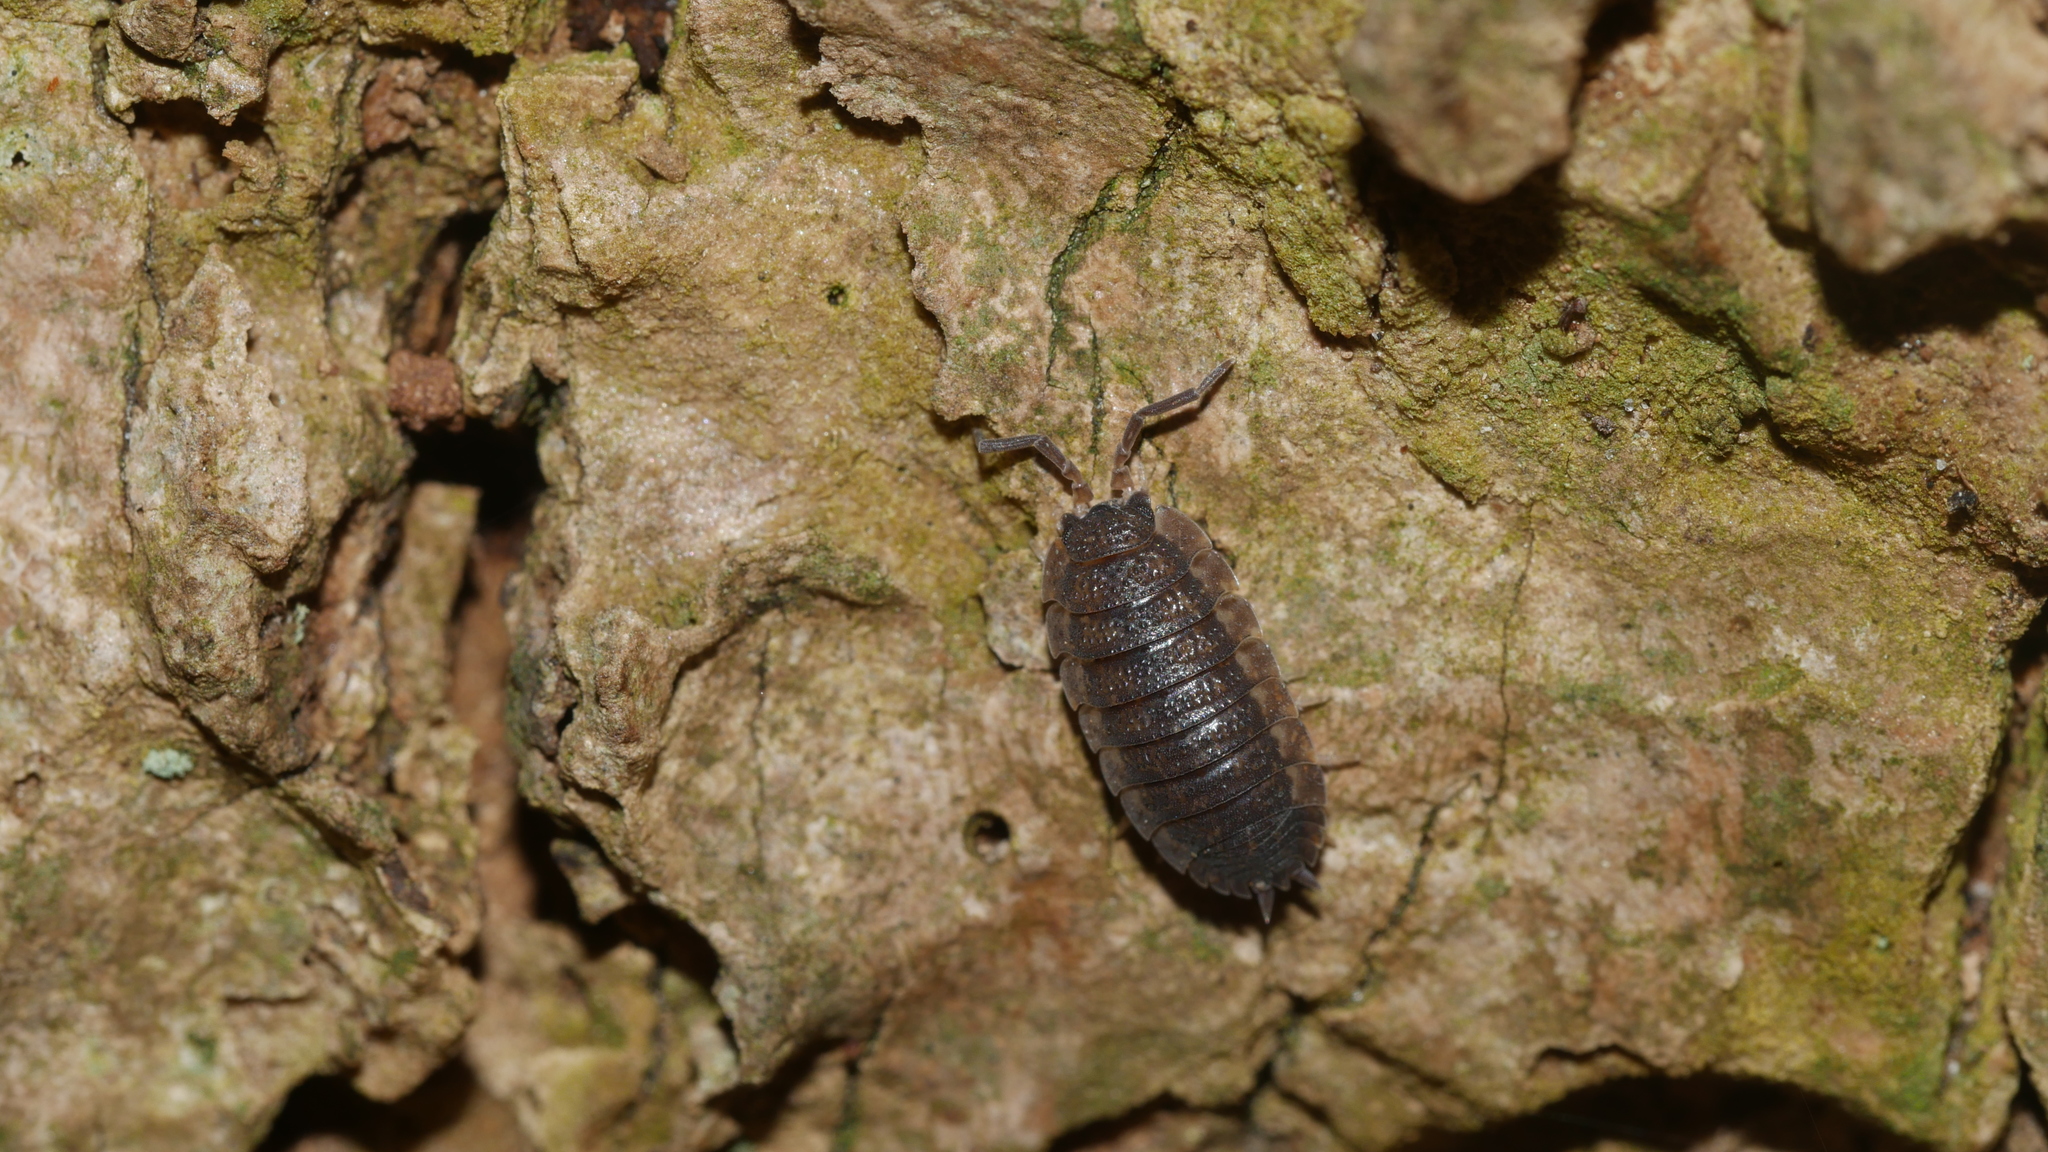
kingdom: Animalia
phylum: Arthropoda
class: Malacostraca
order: Isopoda
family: Porcellionidae
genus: Porcellio
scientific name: Porcellio scaber
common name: Common rough woodlouse
